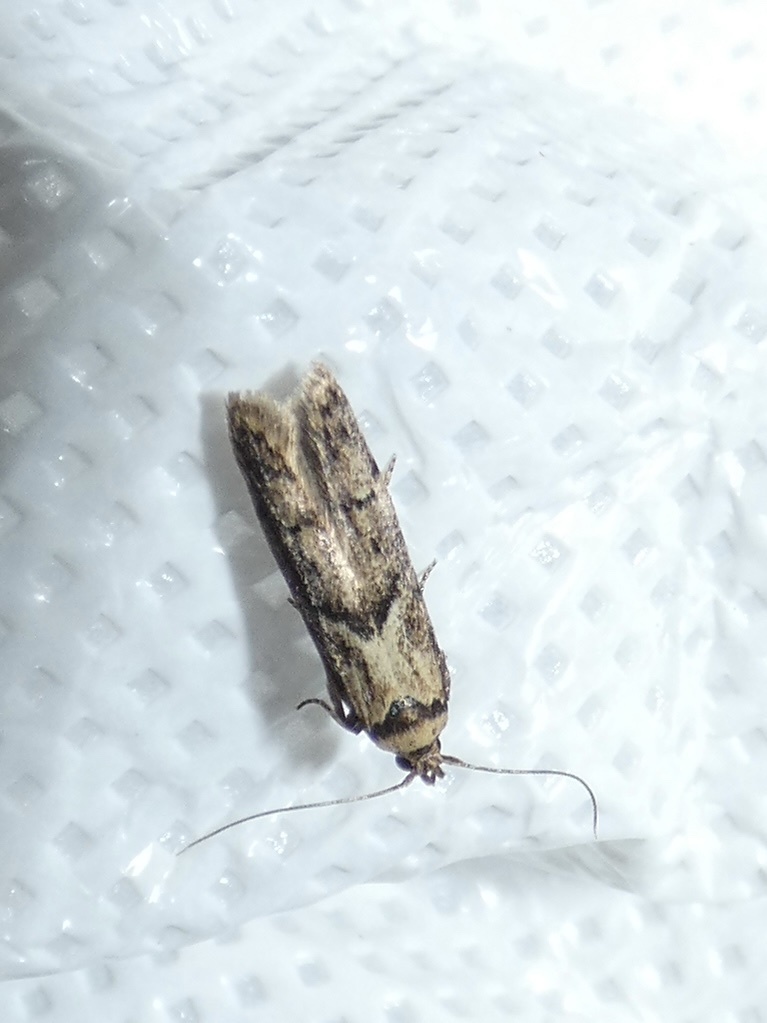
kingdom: Animalia
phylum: Arthropoda
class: Insecta
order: Lepidoptera
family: Blastobasidae
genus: Blastobasis
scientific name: Blastobasis adustella
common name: Dingy dowd
